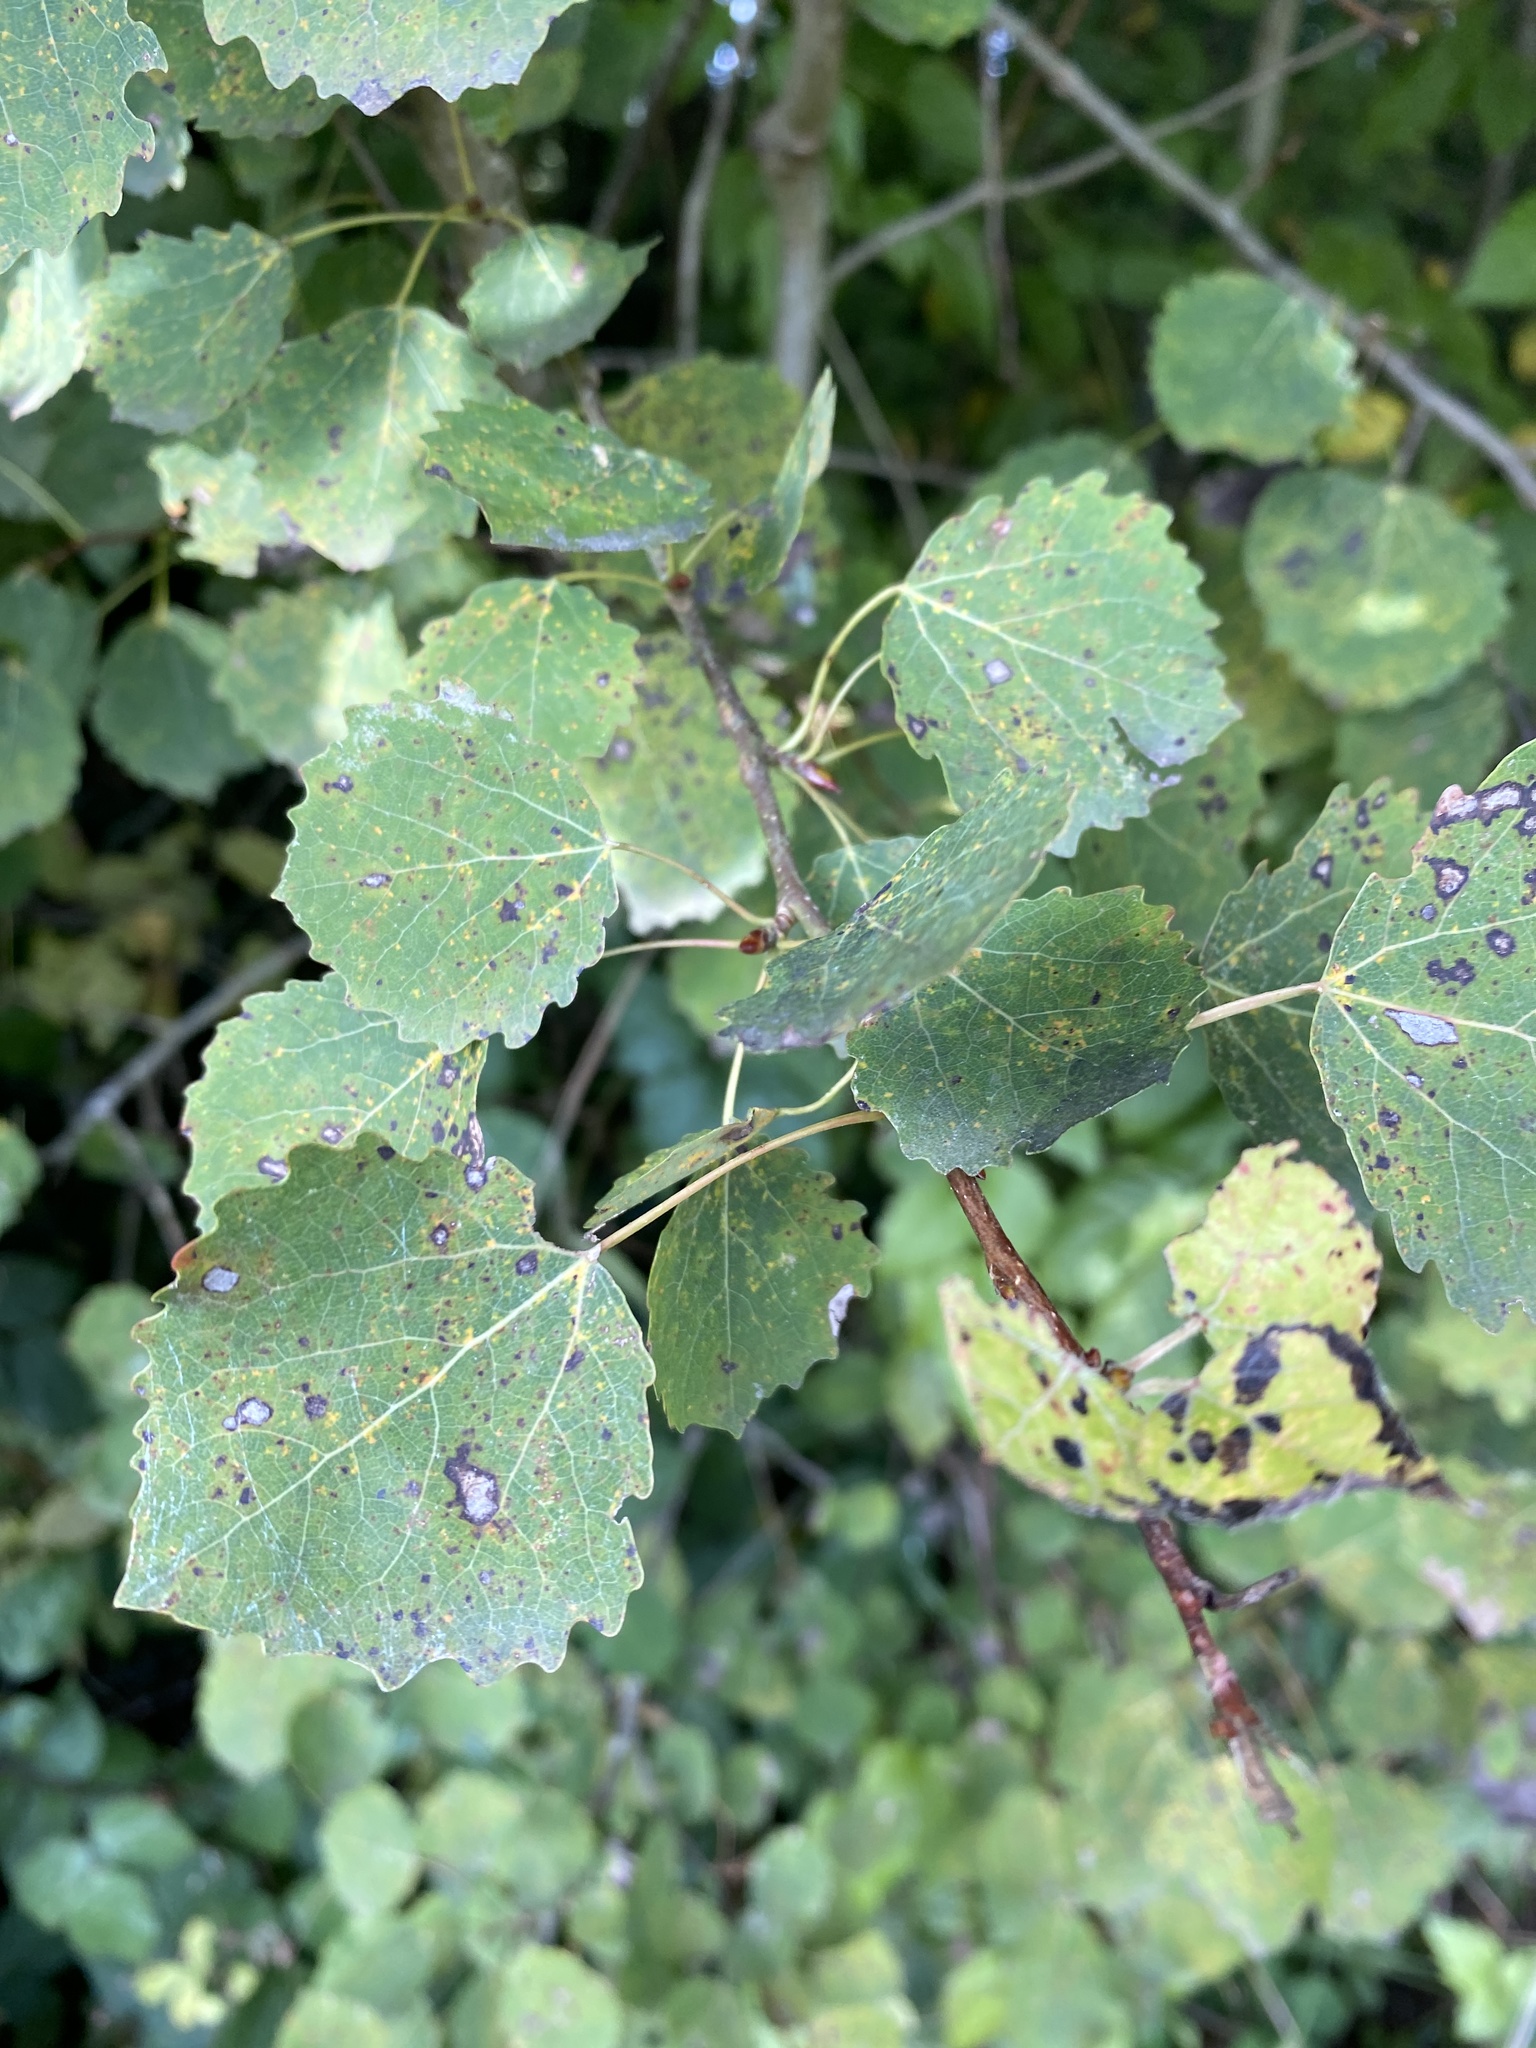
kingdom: Plantae
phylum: Tracheophyta
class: Magnoliopsida
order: Malpighiales
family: Salicaceae
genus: Populus
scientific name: Populus tremula
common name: European aspen
